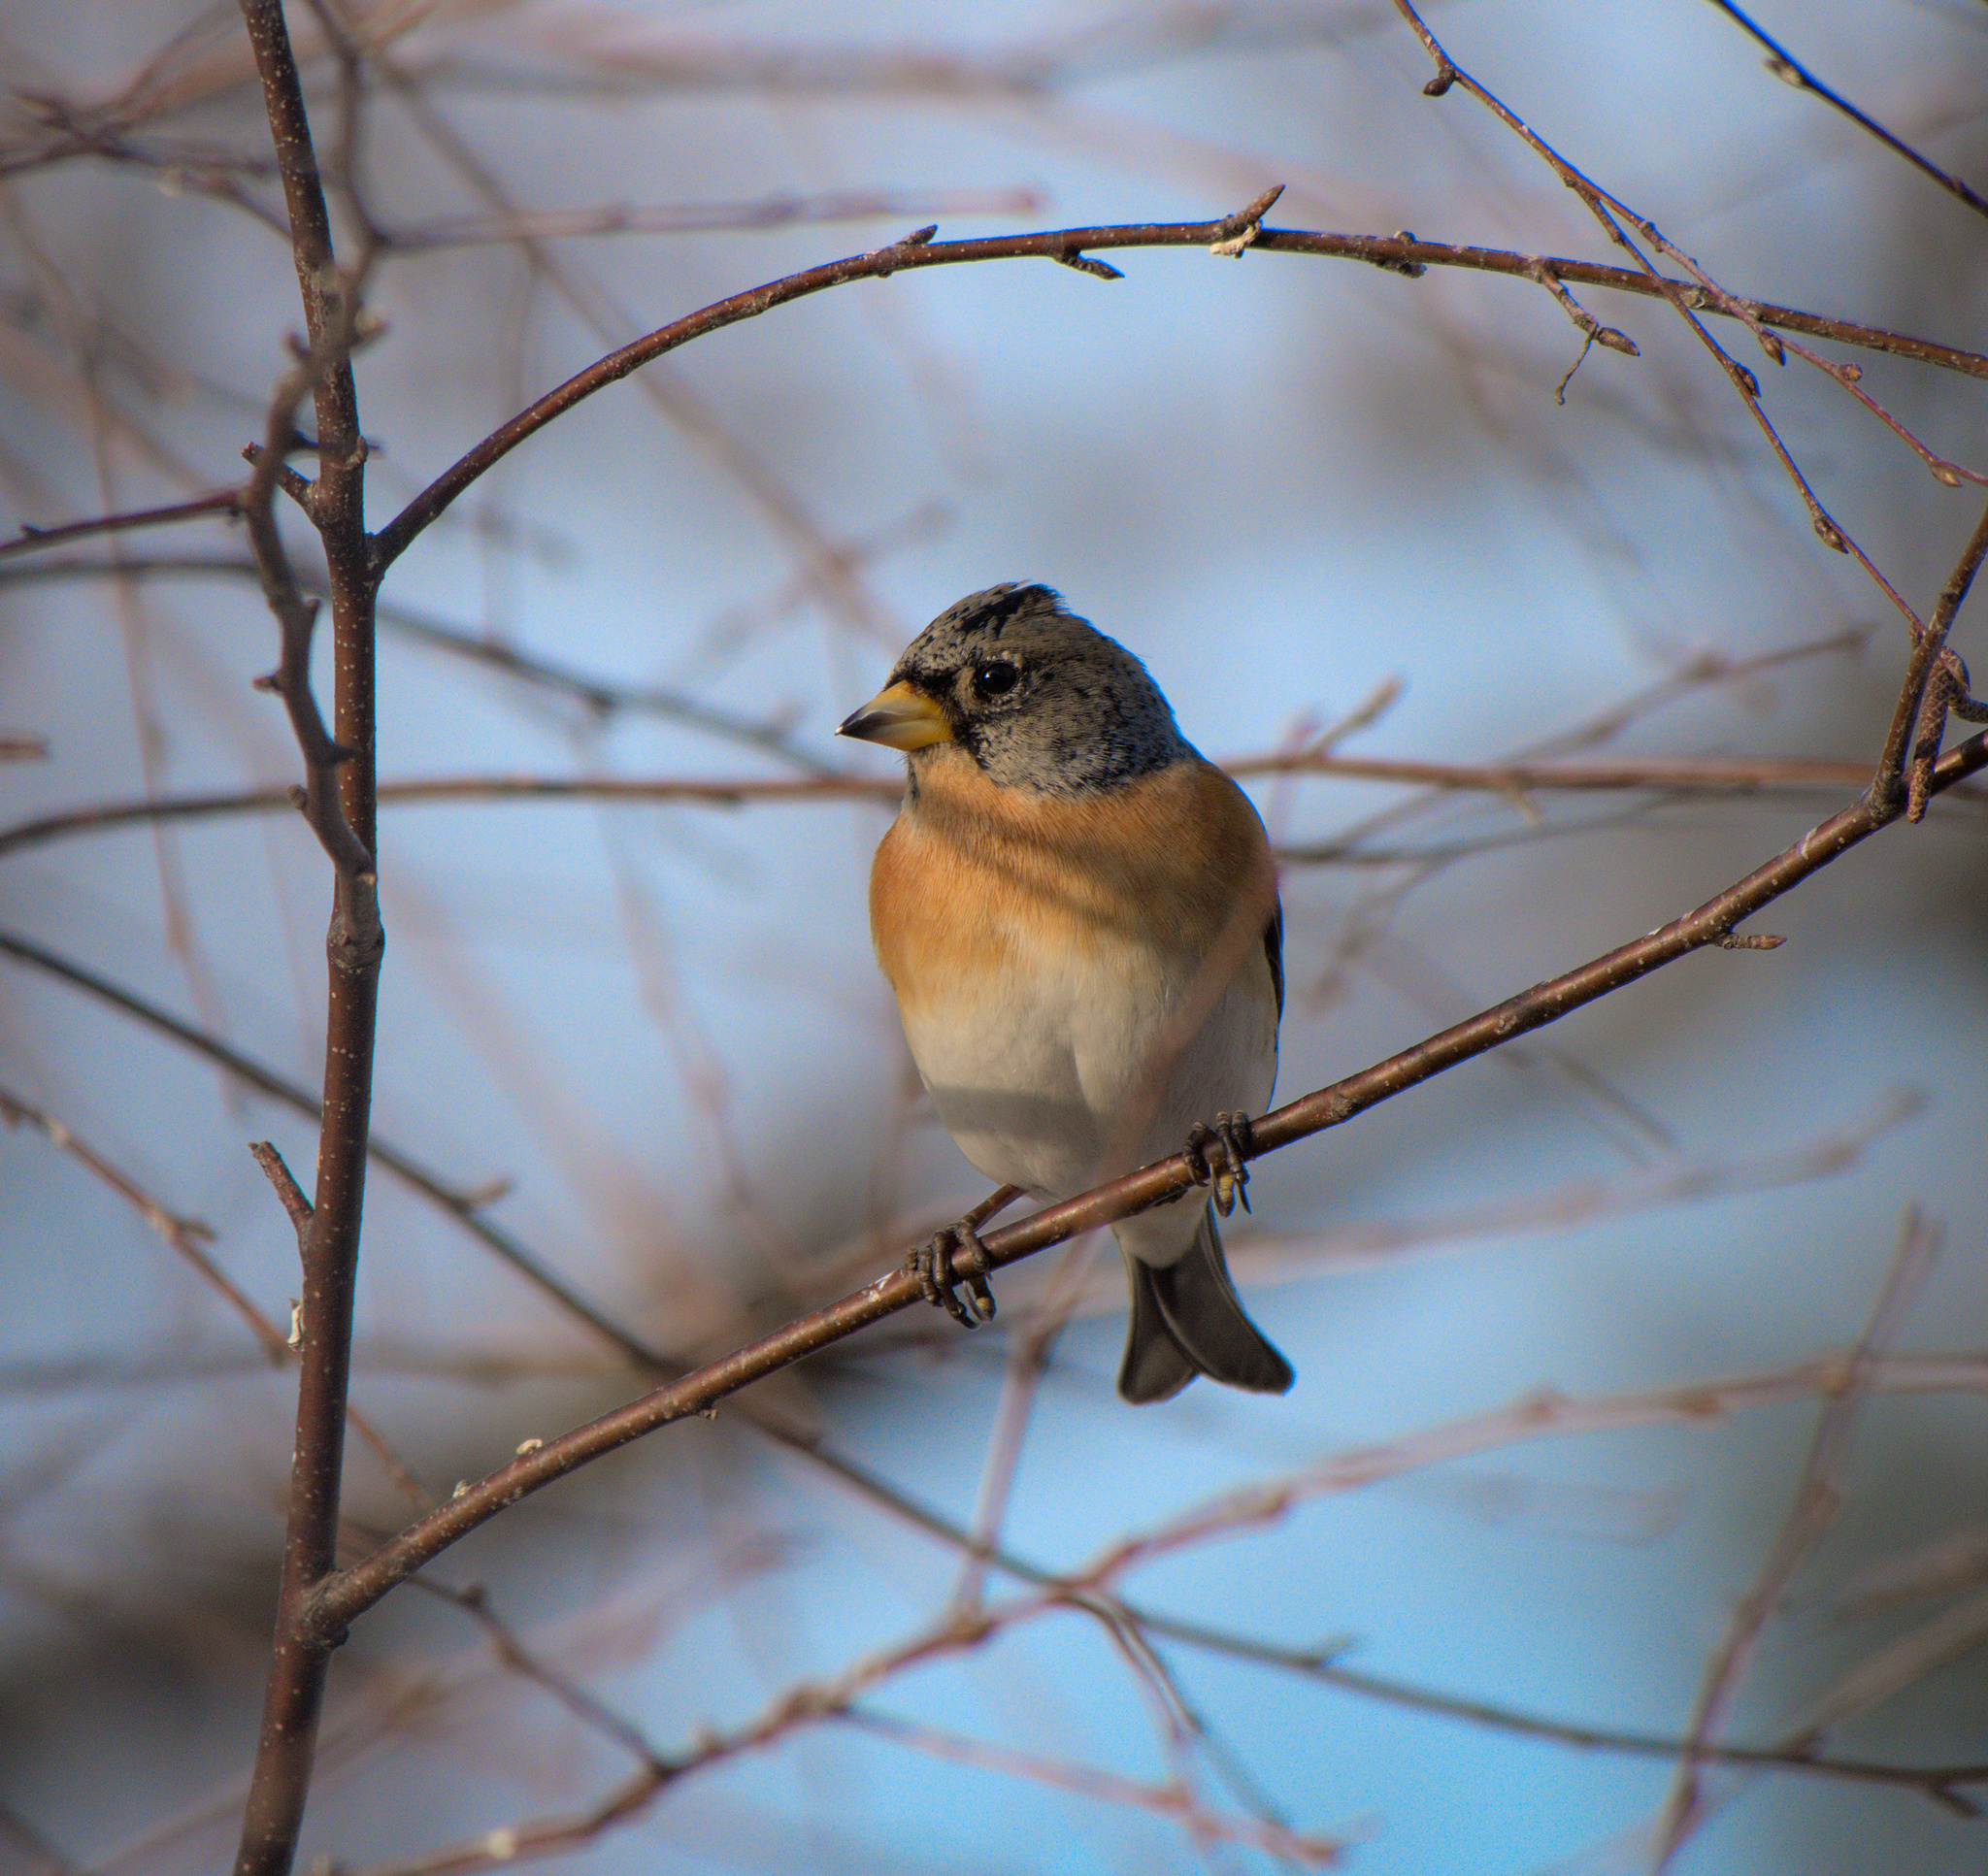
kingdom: Animalia
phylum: Chordata
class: Aves
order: Passeriformes
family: Fringillidae
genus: Fringilla
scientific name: Fringilla montifringilla
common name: Brambling
